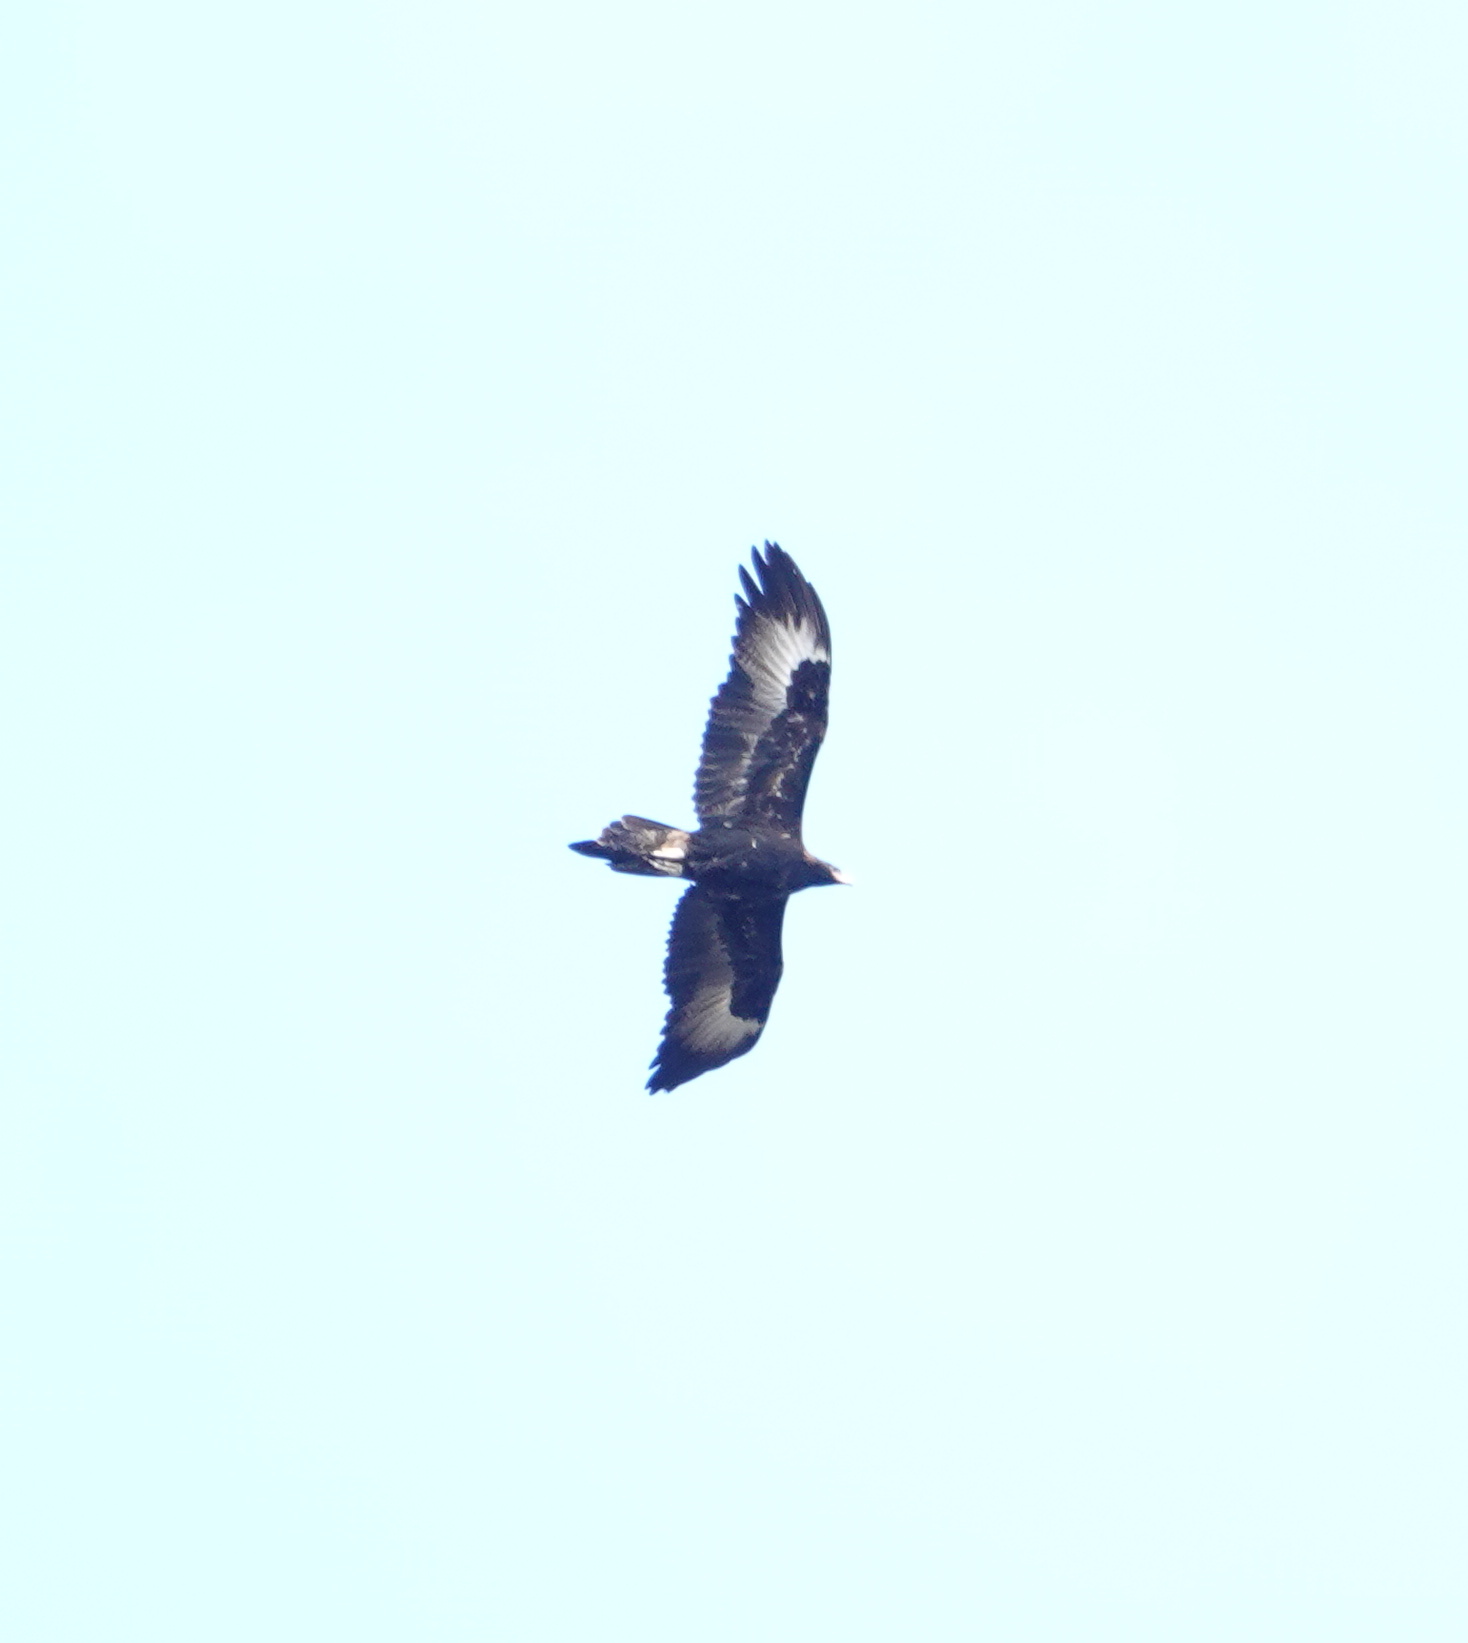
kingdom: Animalia
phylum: Chordata
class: Aves
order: Accipitriformes
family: Accipitridae
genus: Aquila
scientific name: Aquila audax
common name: Wedge-tailed eagle
